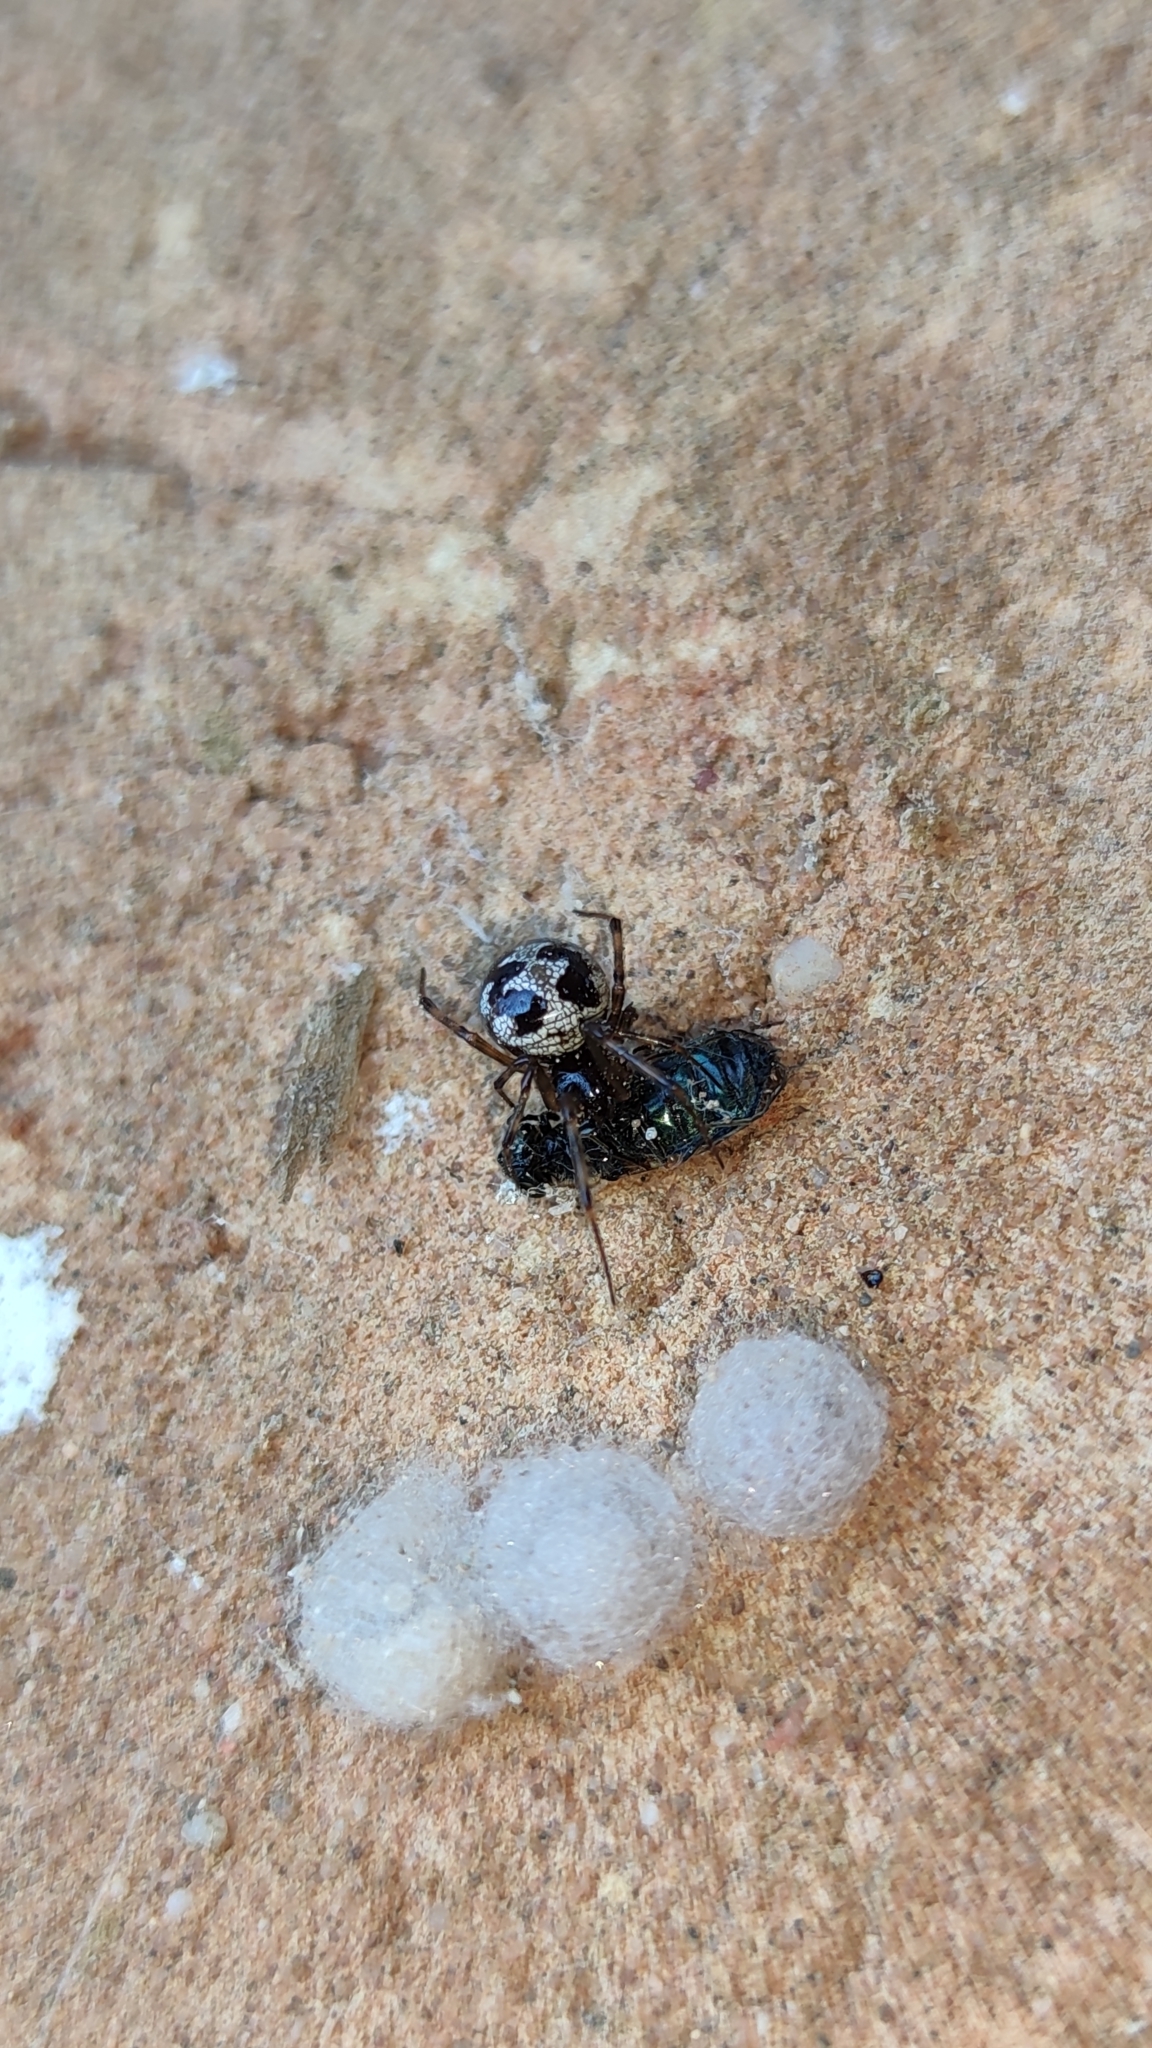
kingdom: Animalia
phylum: Arthropoda
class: Arachnida
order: Araneae
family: Theridiidae
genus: Steatoda
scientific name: Steatoda triangulosa
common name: Triangulate bud spider
